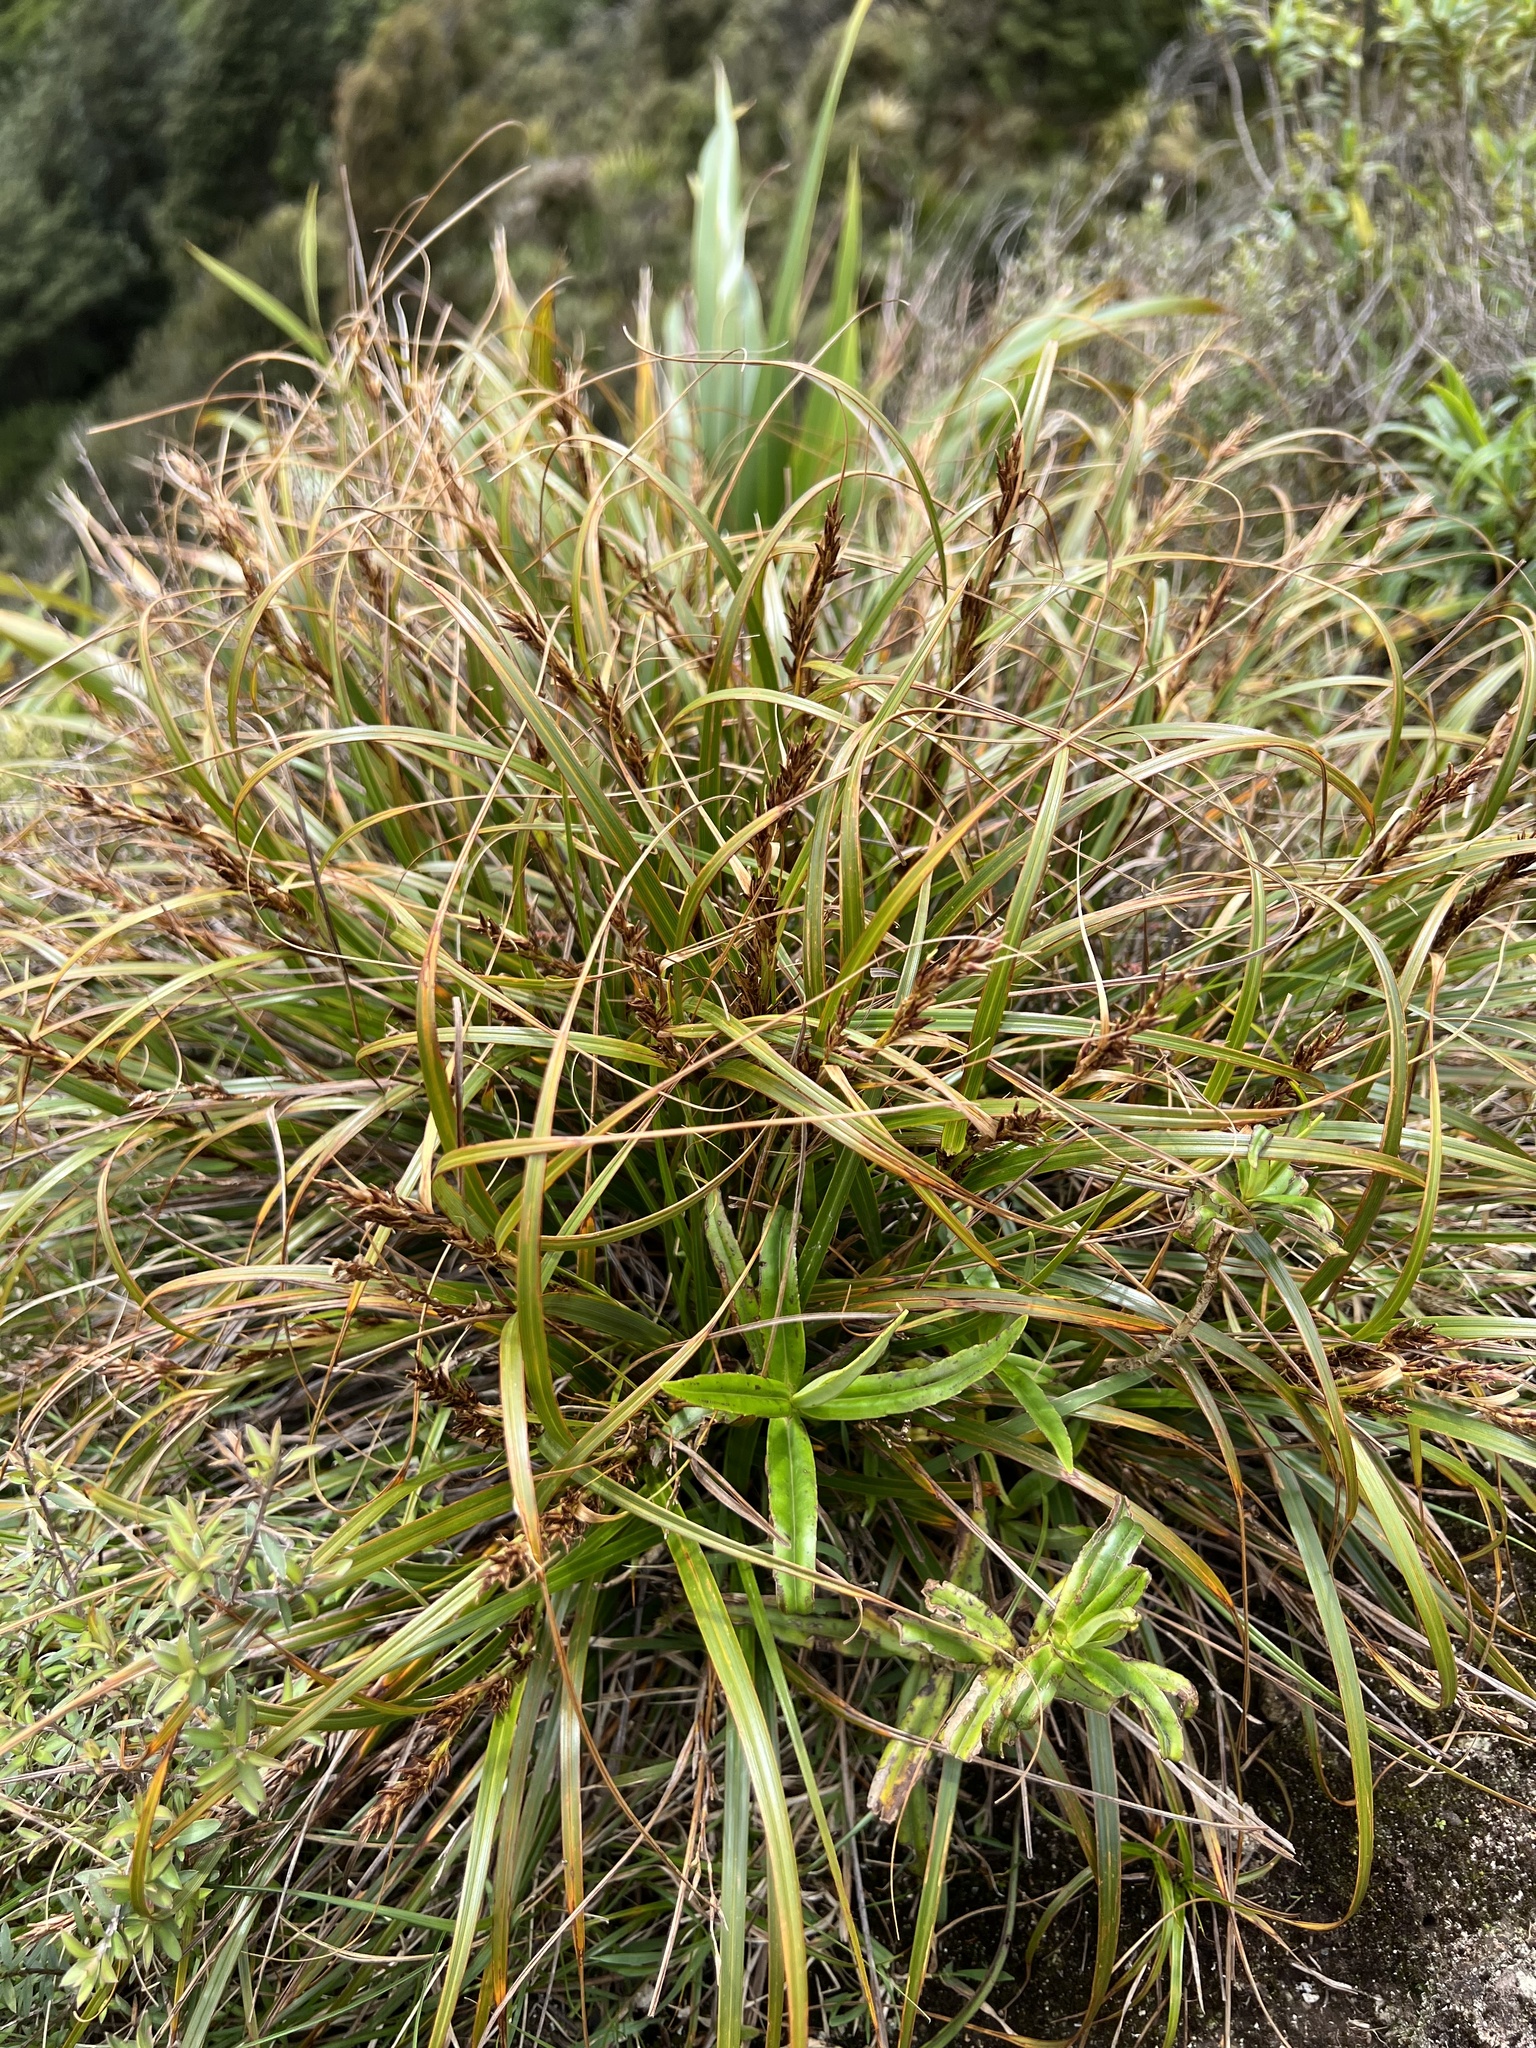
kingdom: Plantae
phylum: Tracheophyta
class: Liliopsida
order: Poales
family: Cyperaceae
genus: Morelotia
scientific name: Morelotia affinis
